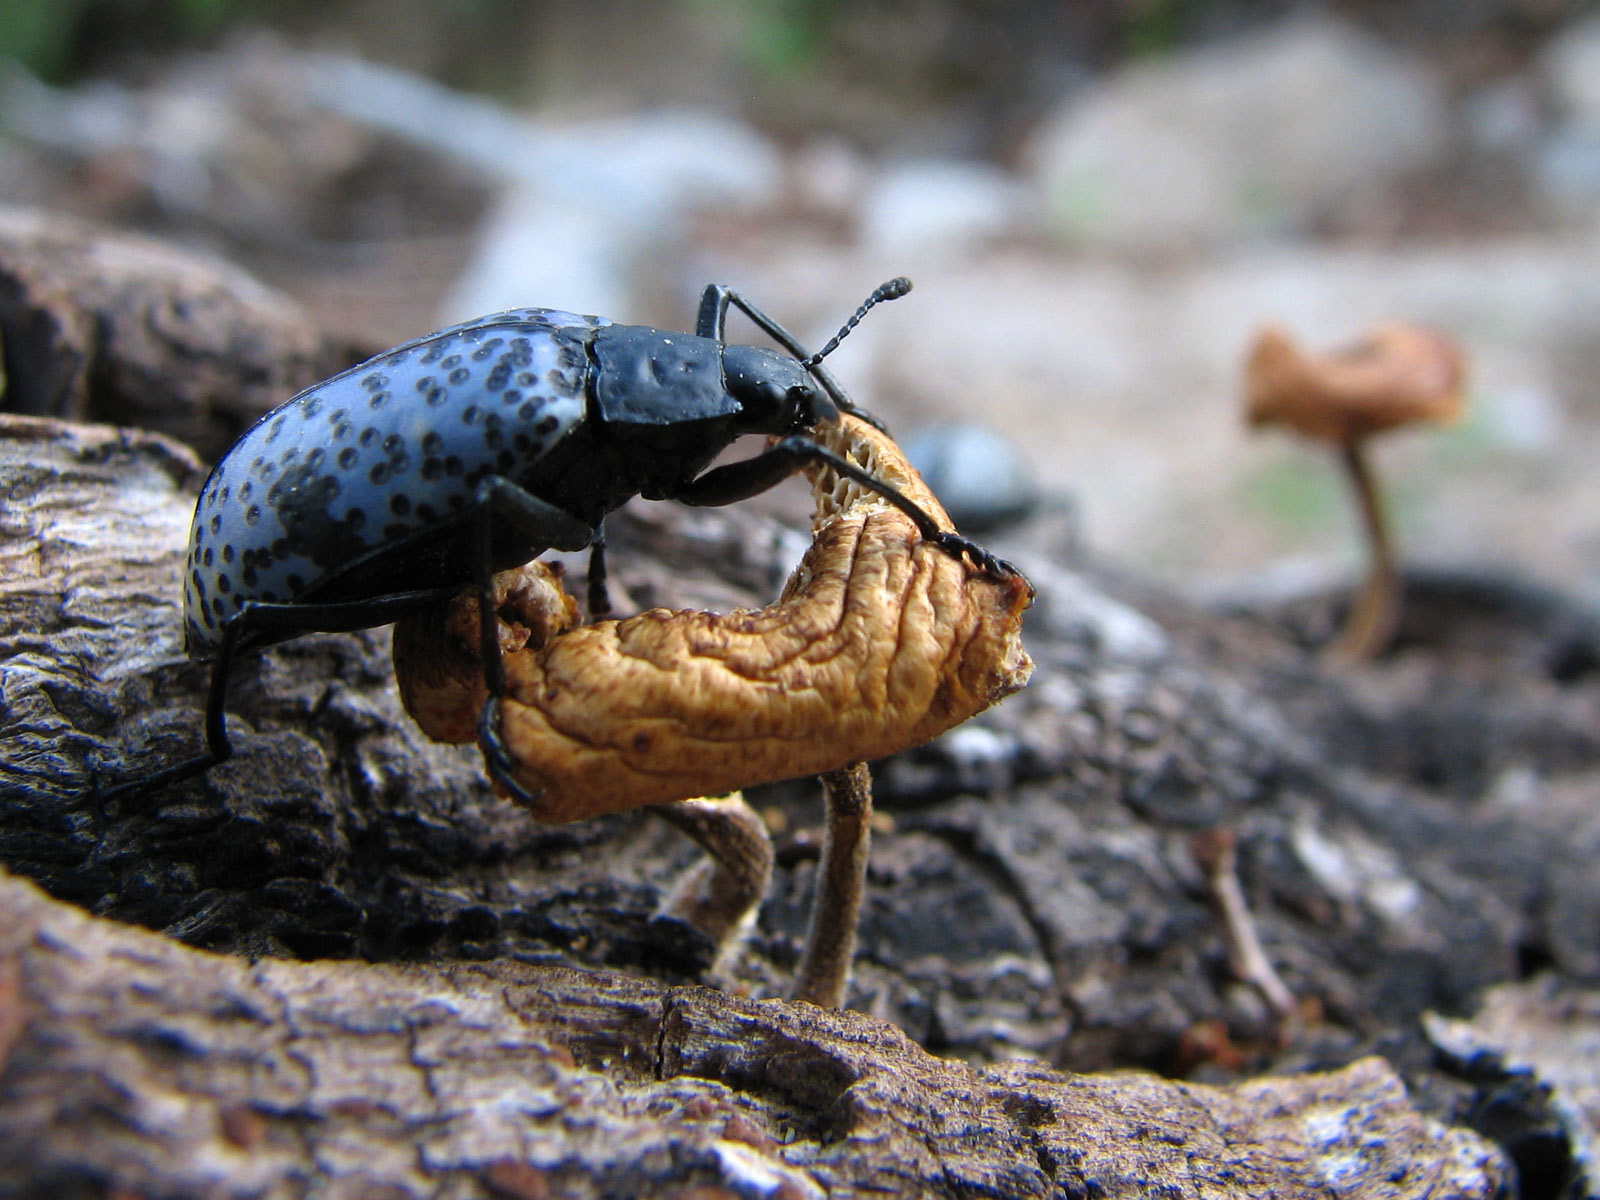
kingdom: Animalia
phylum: Arthropoda
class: Insecta
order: Coleoptera
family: Erotylidae
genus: Gibbifer
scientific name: Gibbifer californicus
